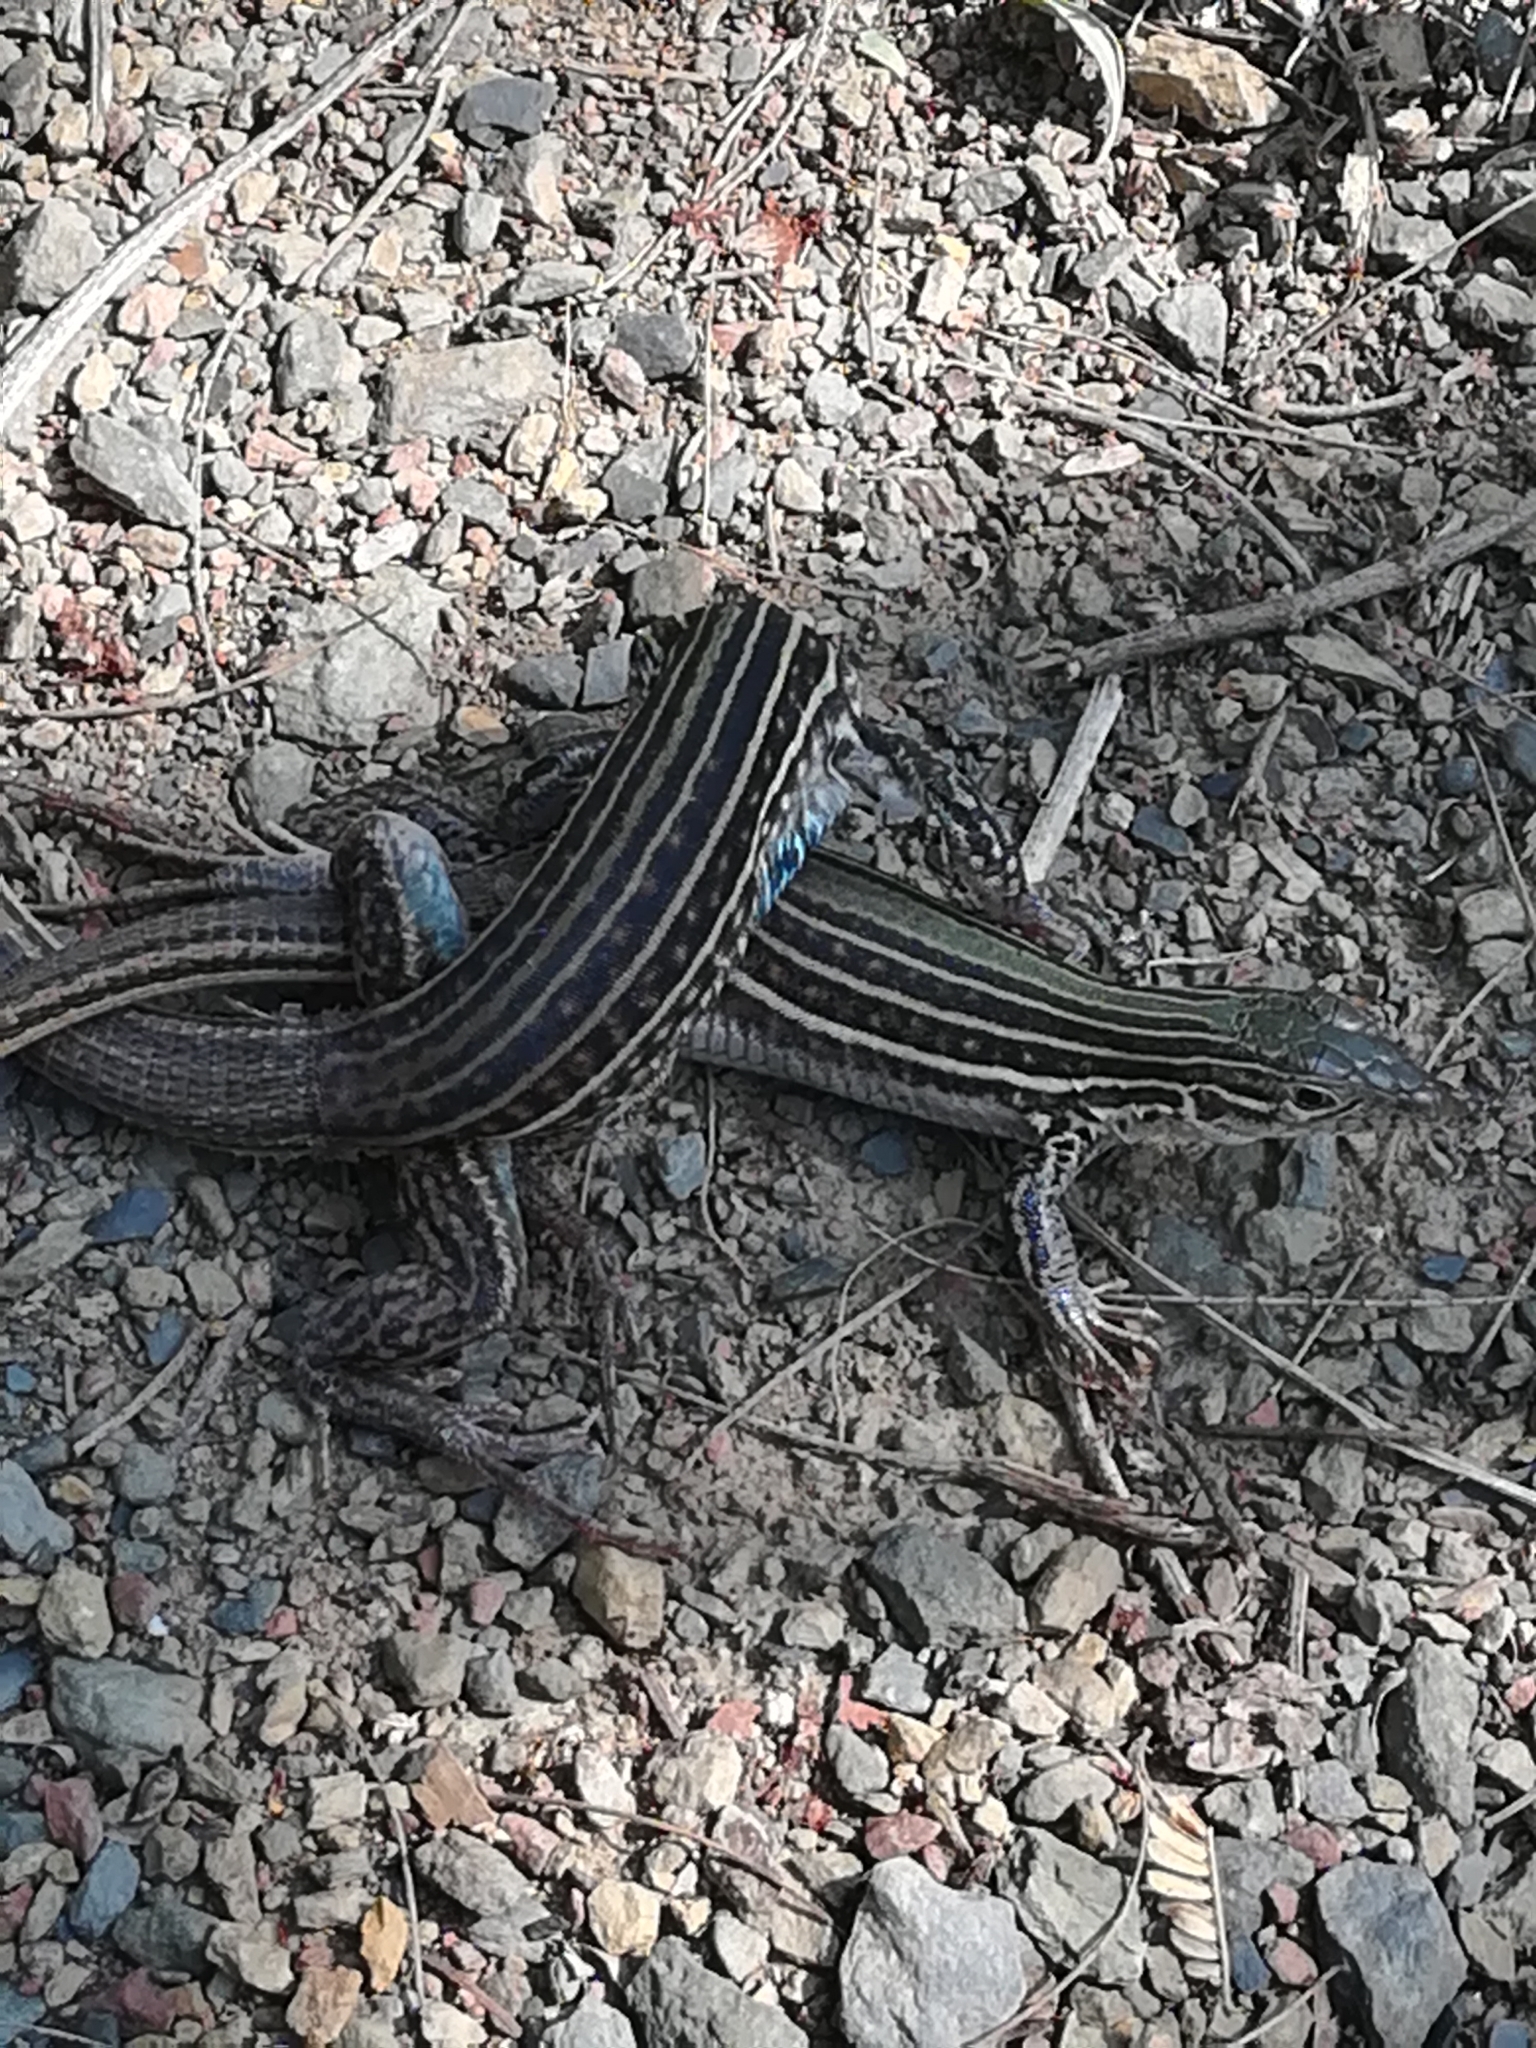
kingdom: Animalia
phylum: Chordata
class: Squamata
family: Teiidae
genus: Aspidoscelis
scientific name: Aspidoscelis gularis
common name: Eastern spotted whiptail
